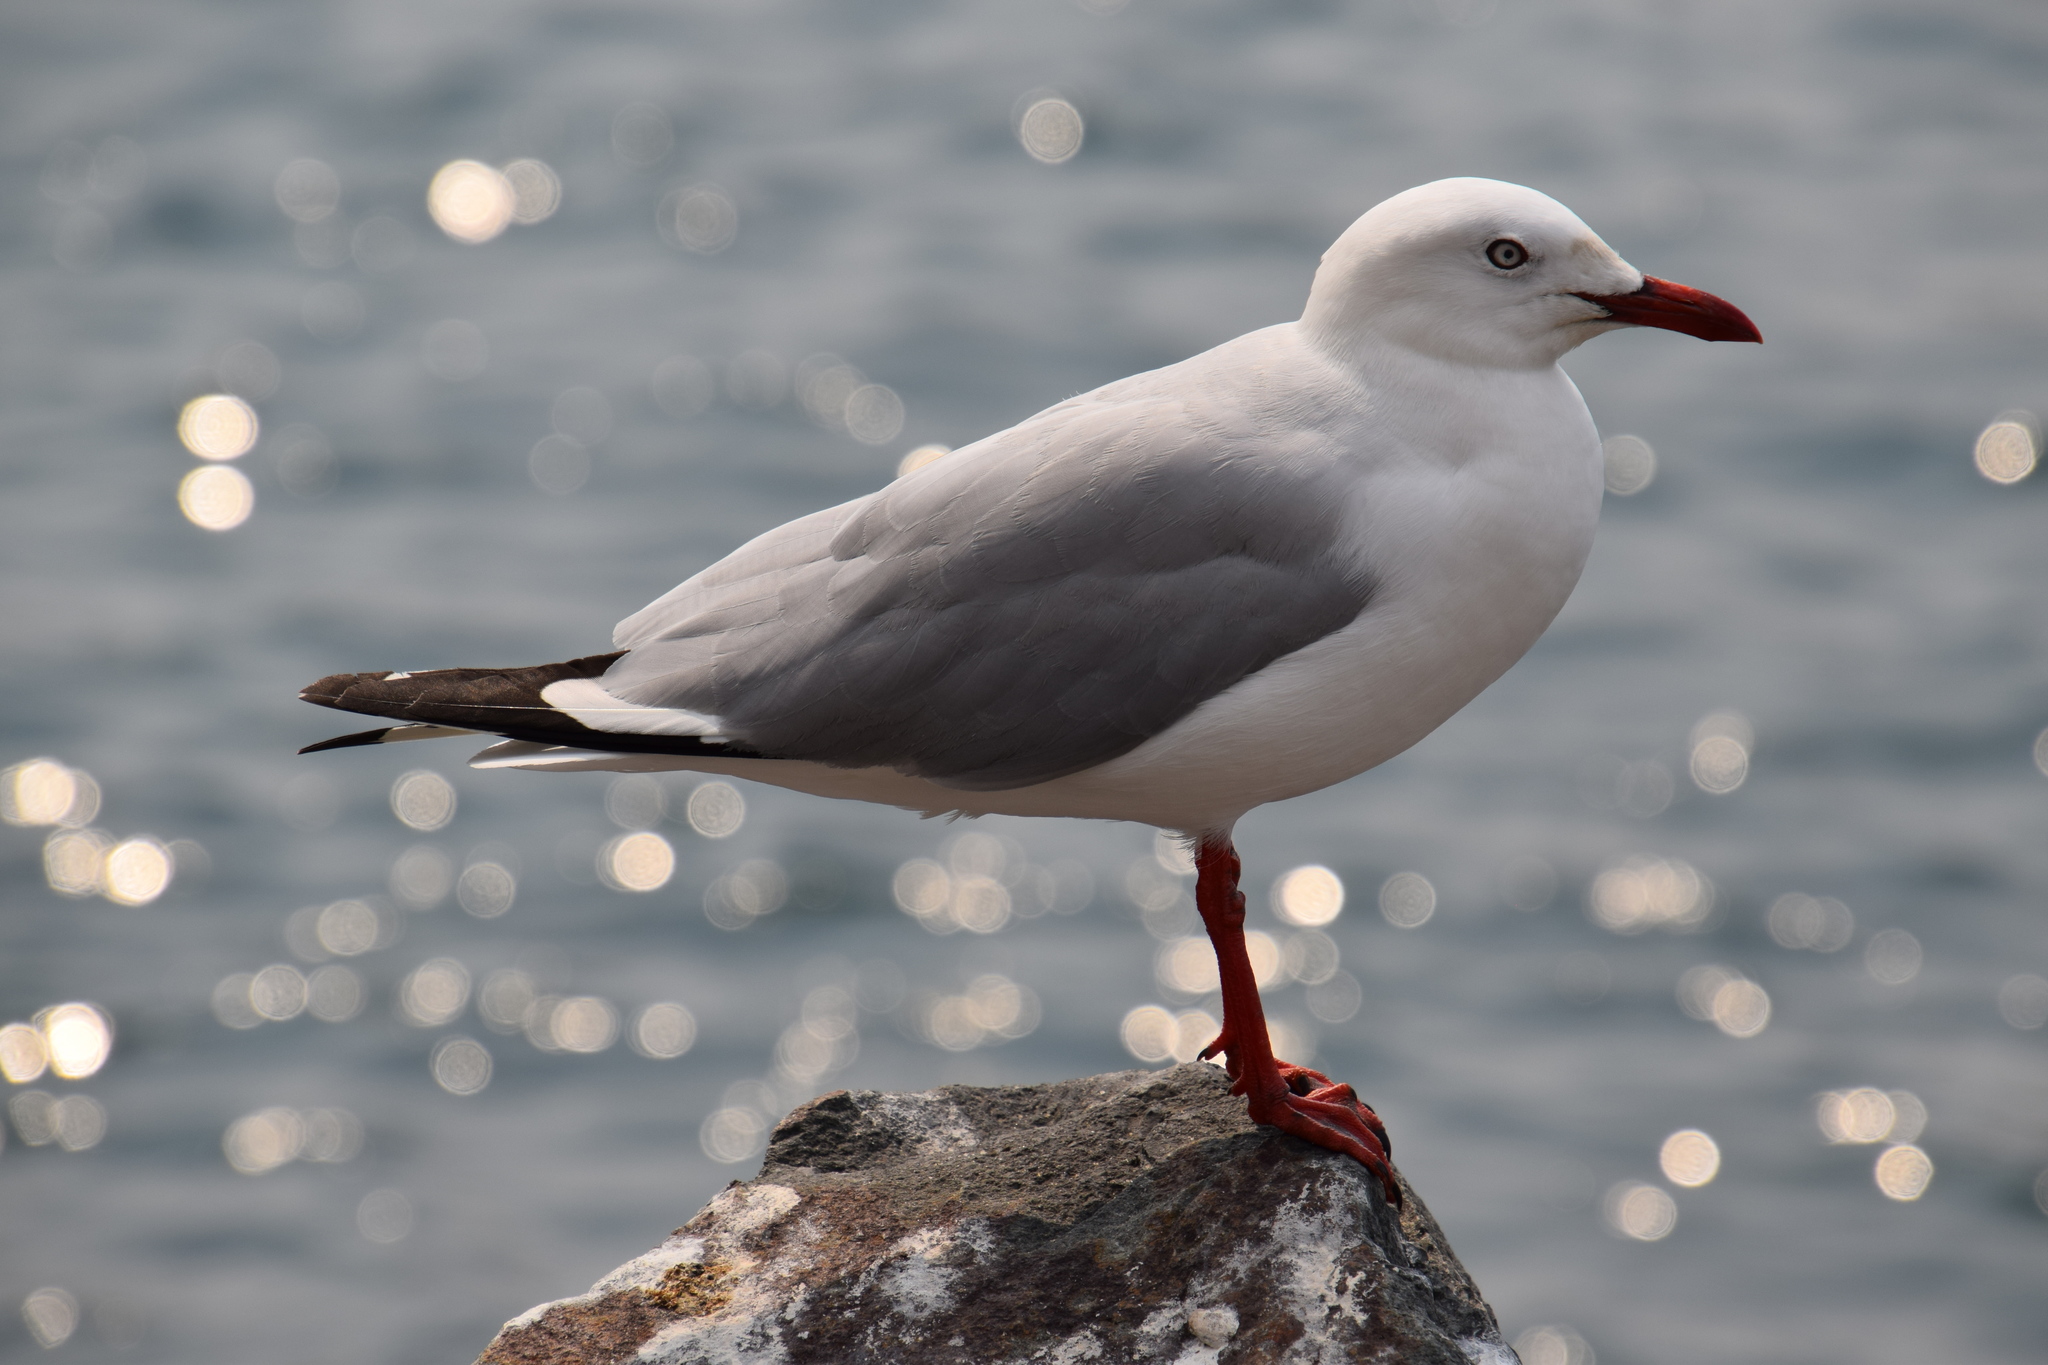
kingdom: Animalia
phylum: Chordata
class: Aves
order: Charadriiformes
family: Laridae
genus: Chroicocephalus
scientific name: Chroicocephalus novaehollandiae
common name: Silver gull
